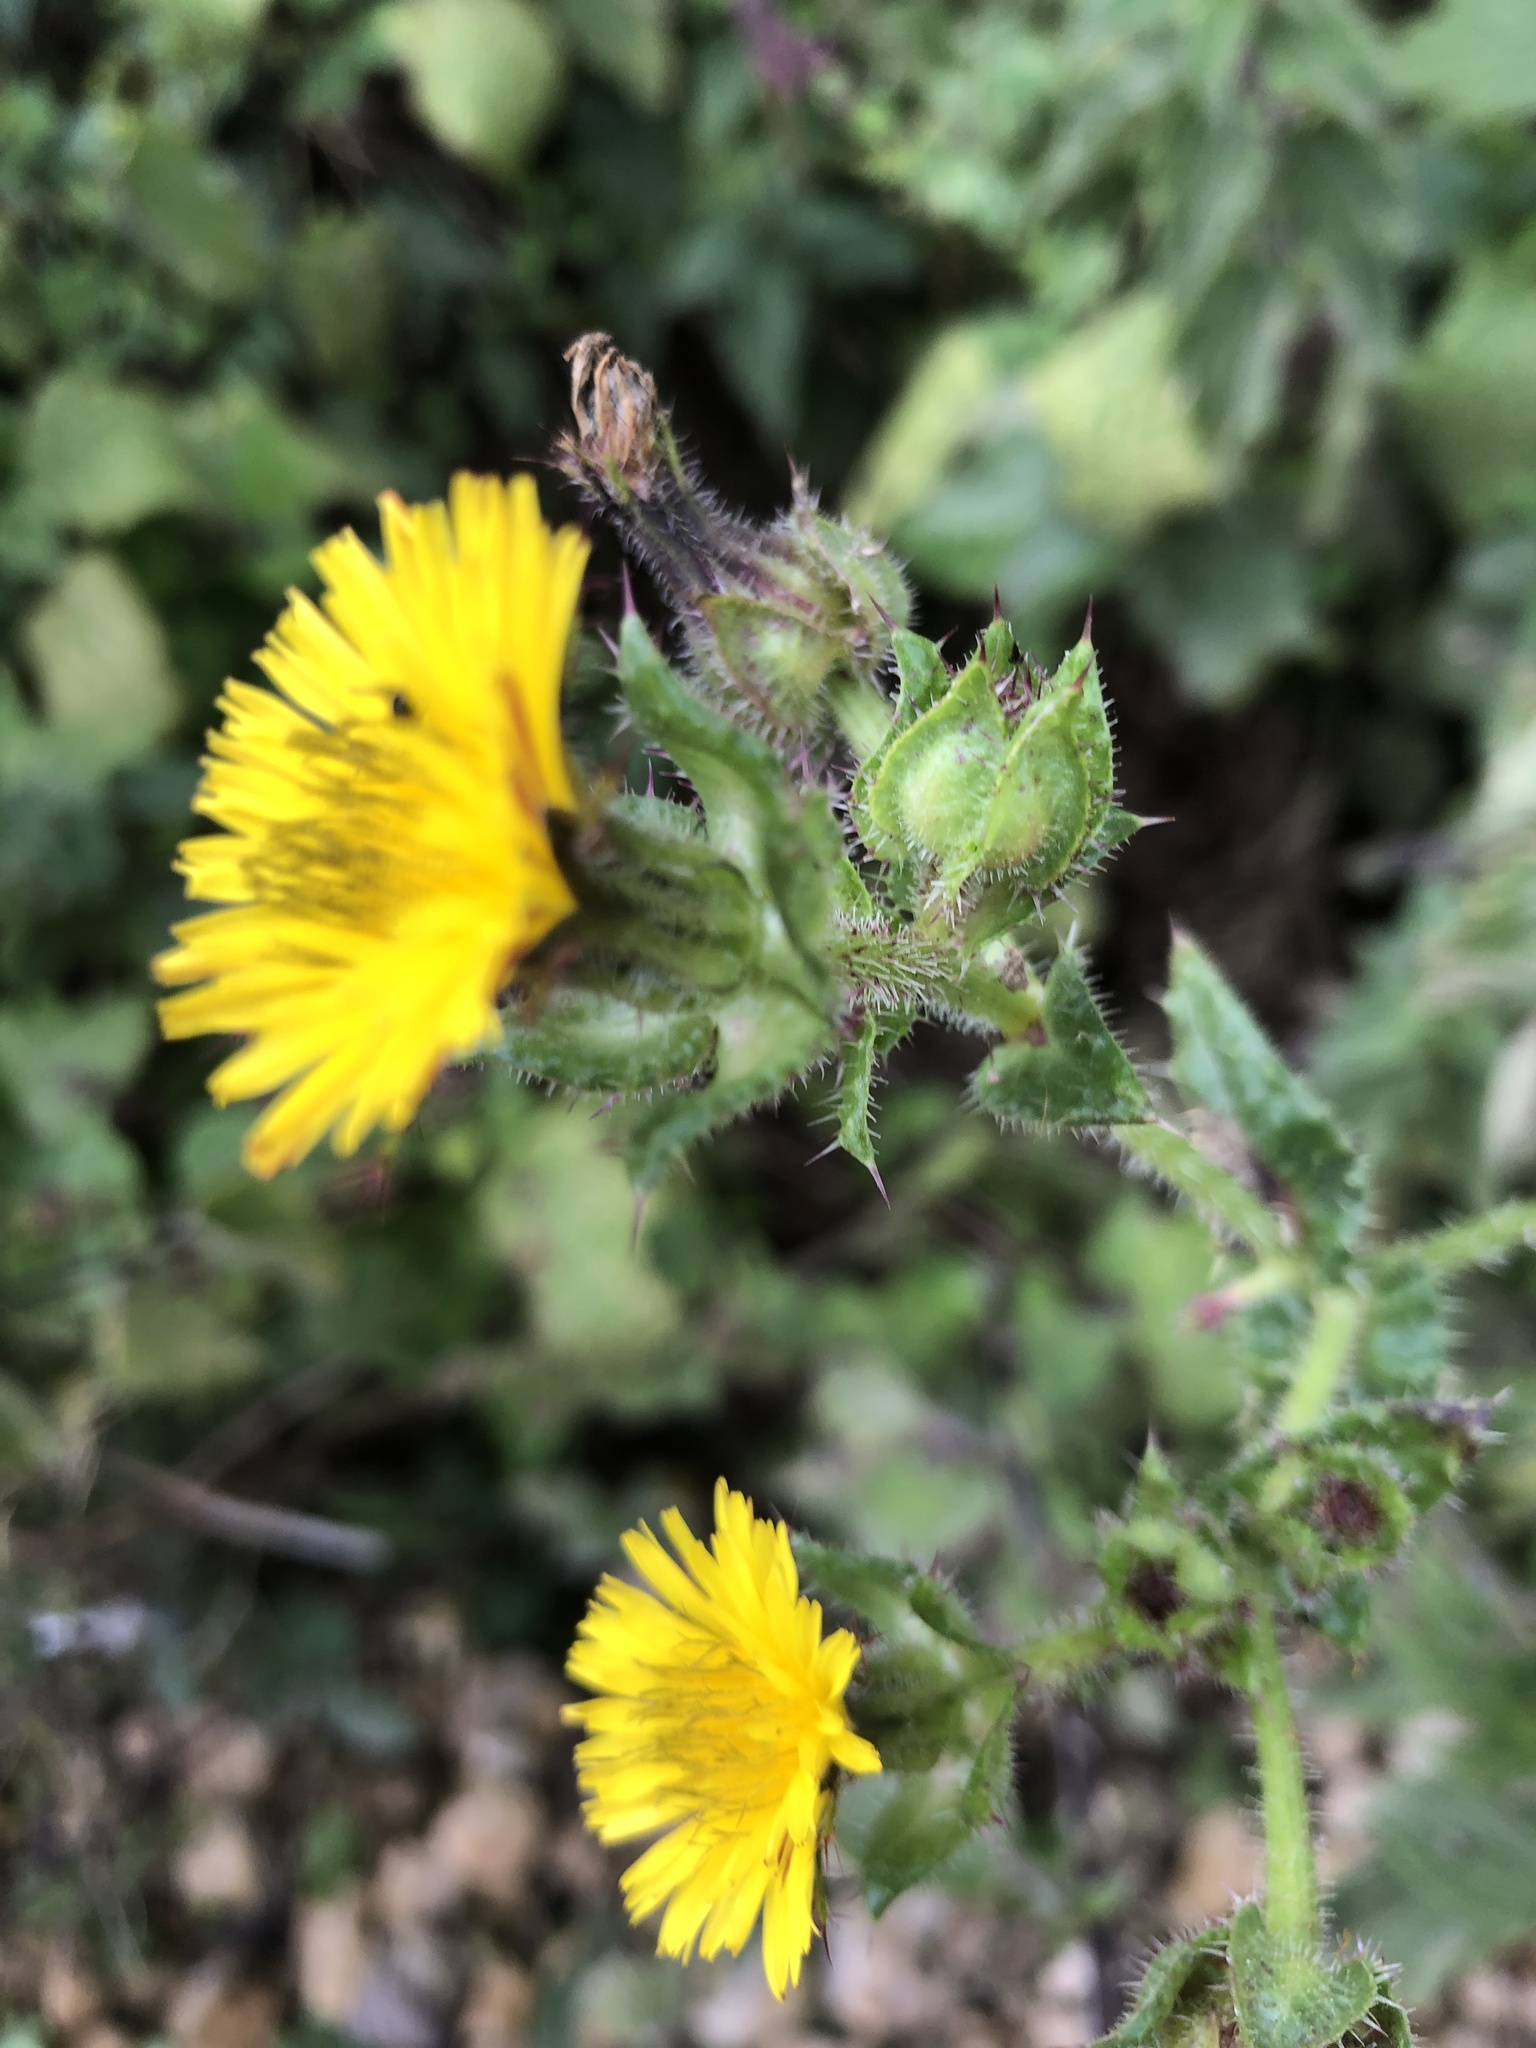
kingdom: Plantae
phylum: Tracheophyta
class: Magnoliopsida
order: Asterales
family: Asteraceae
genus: Helminthotheca
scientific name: Helminthotheca echioides
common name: Ox-tongue
